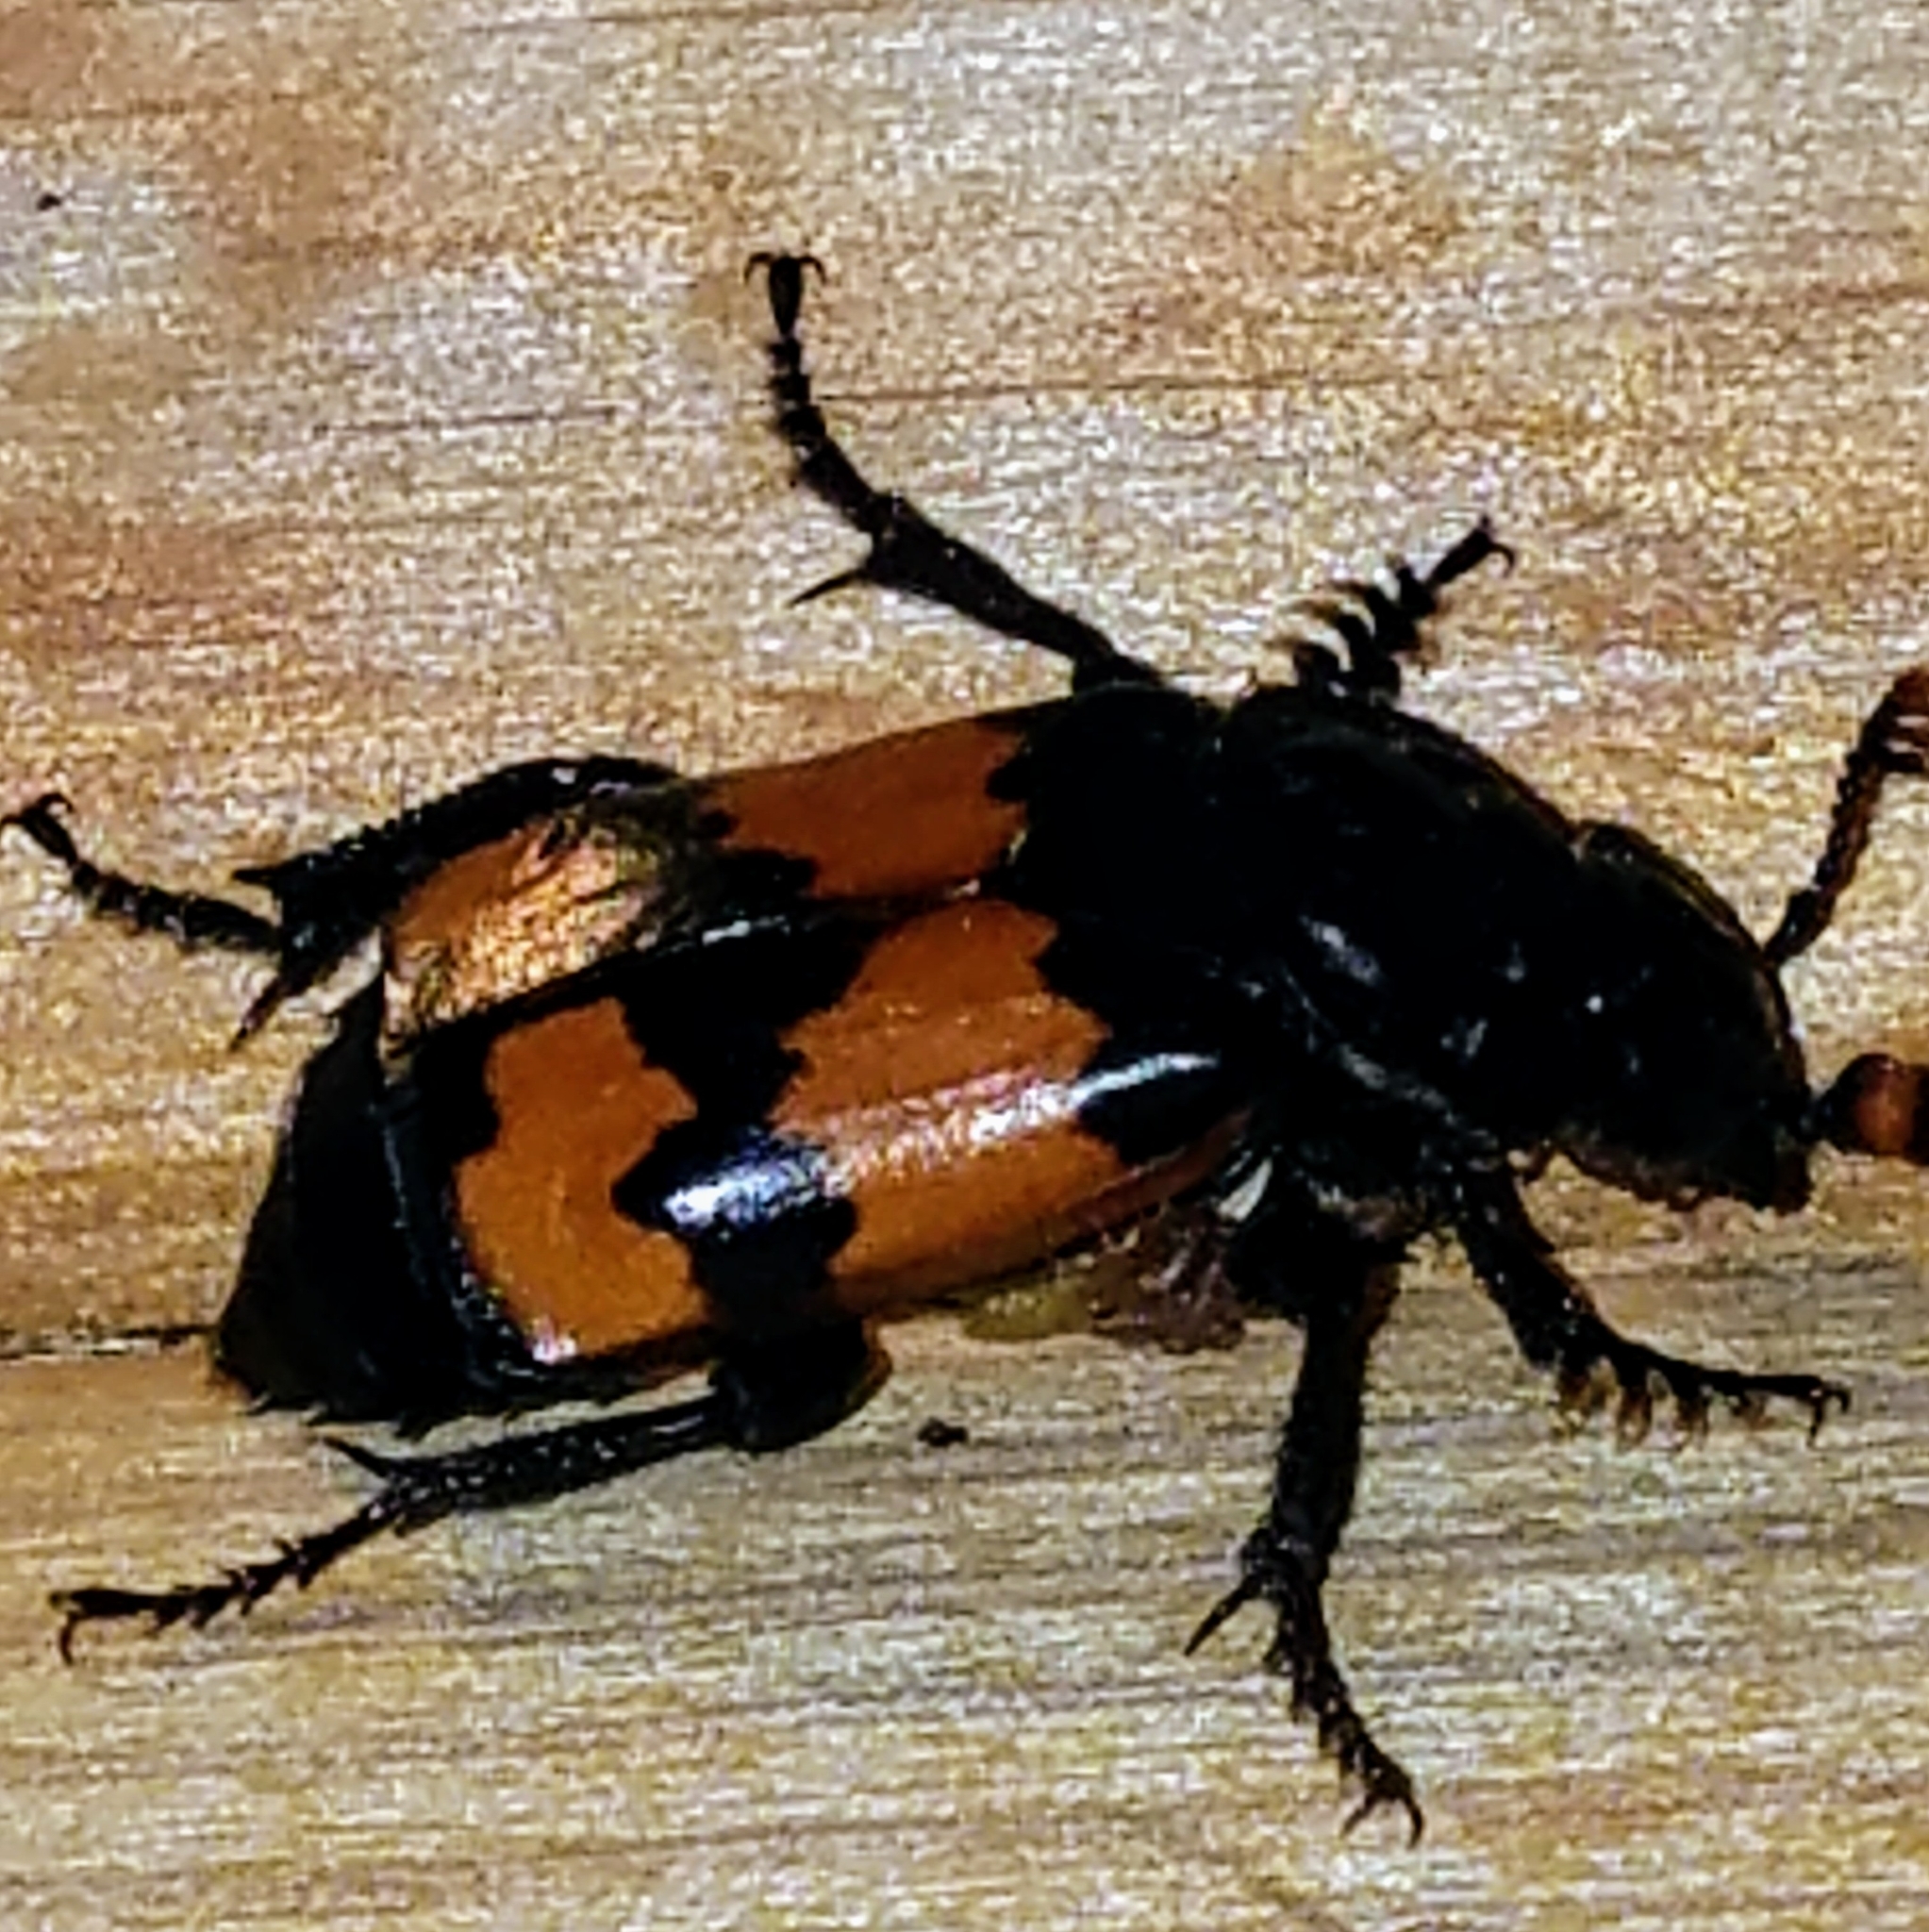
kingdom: Animalia
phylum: Arthropoda
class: Insecta
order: Coleoptera
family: Staphylinidae
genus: Nicrophorus
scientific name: Nicrophorus investigator
